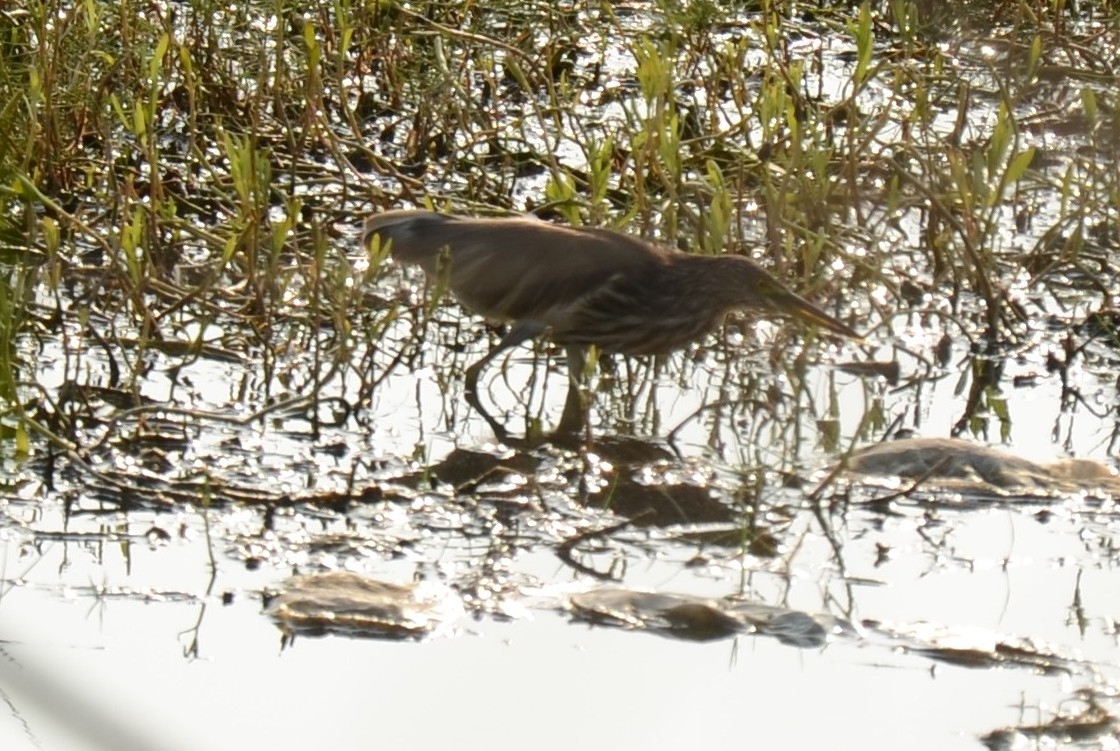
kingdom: Animalia
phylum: Chordata
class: Aves
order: Pelecaniformes
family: Ardeidae
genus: Ardeola
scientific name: Ardeola grayii
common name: Indian pond heron
